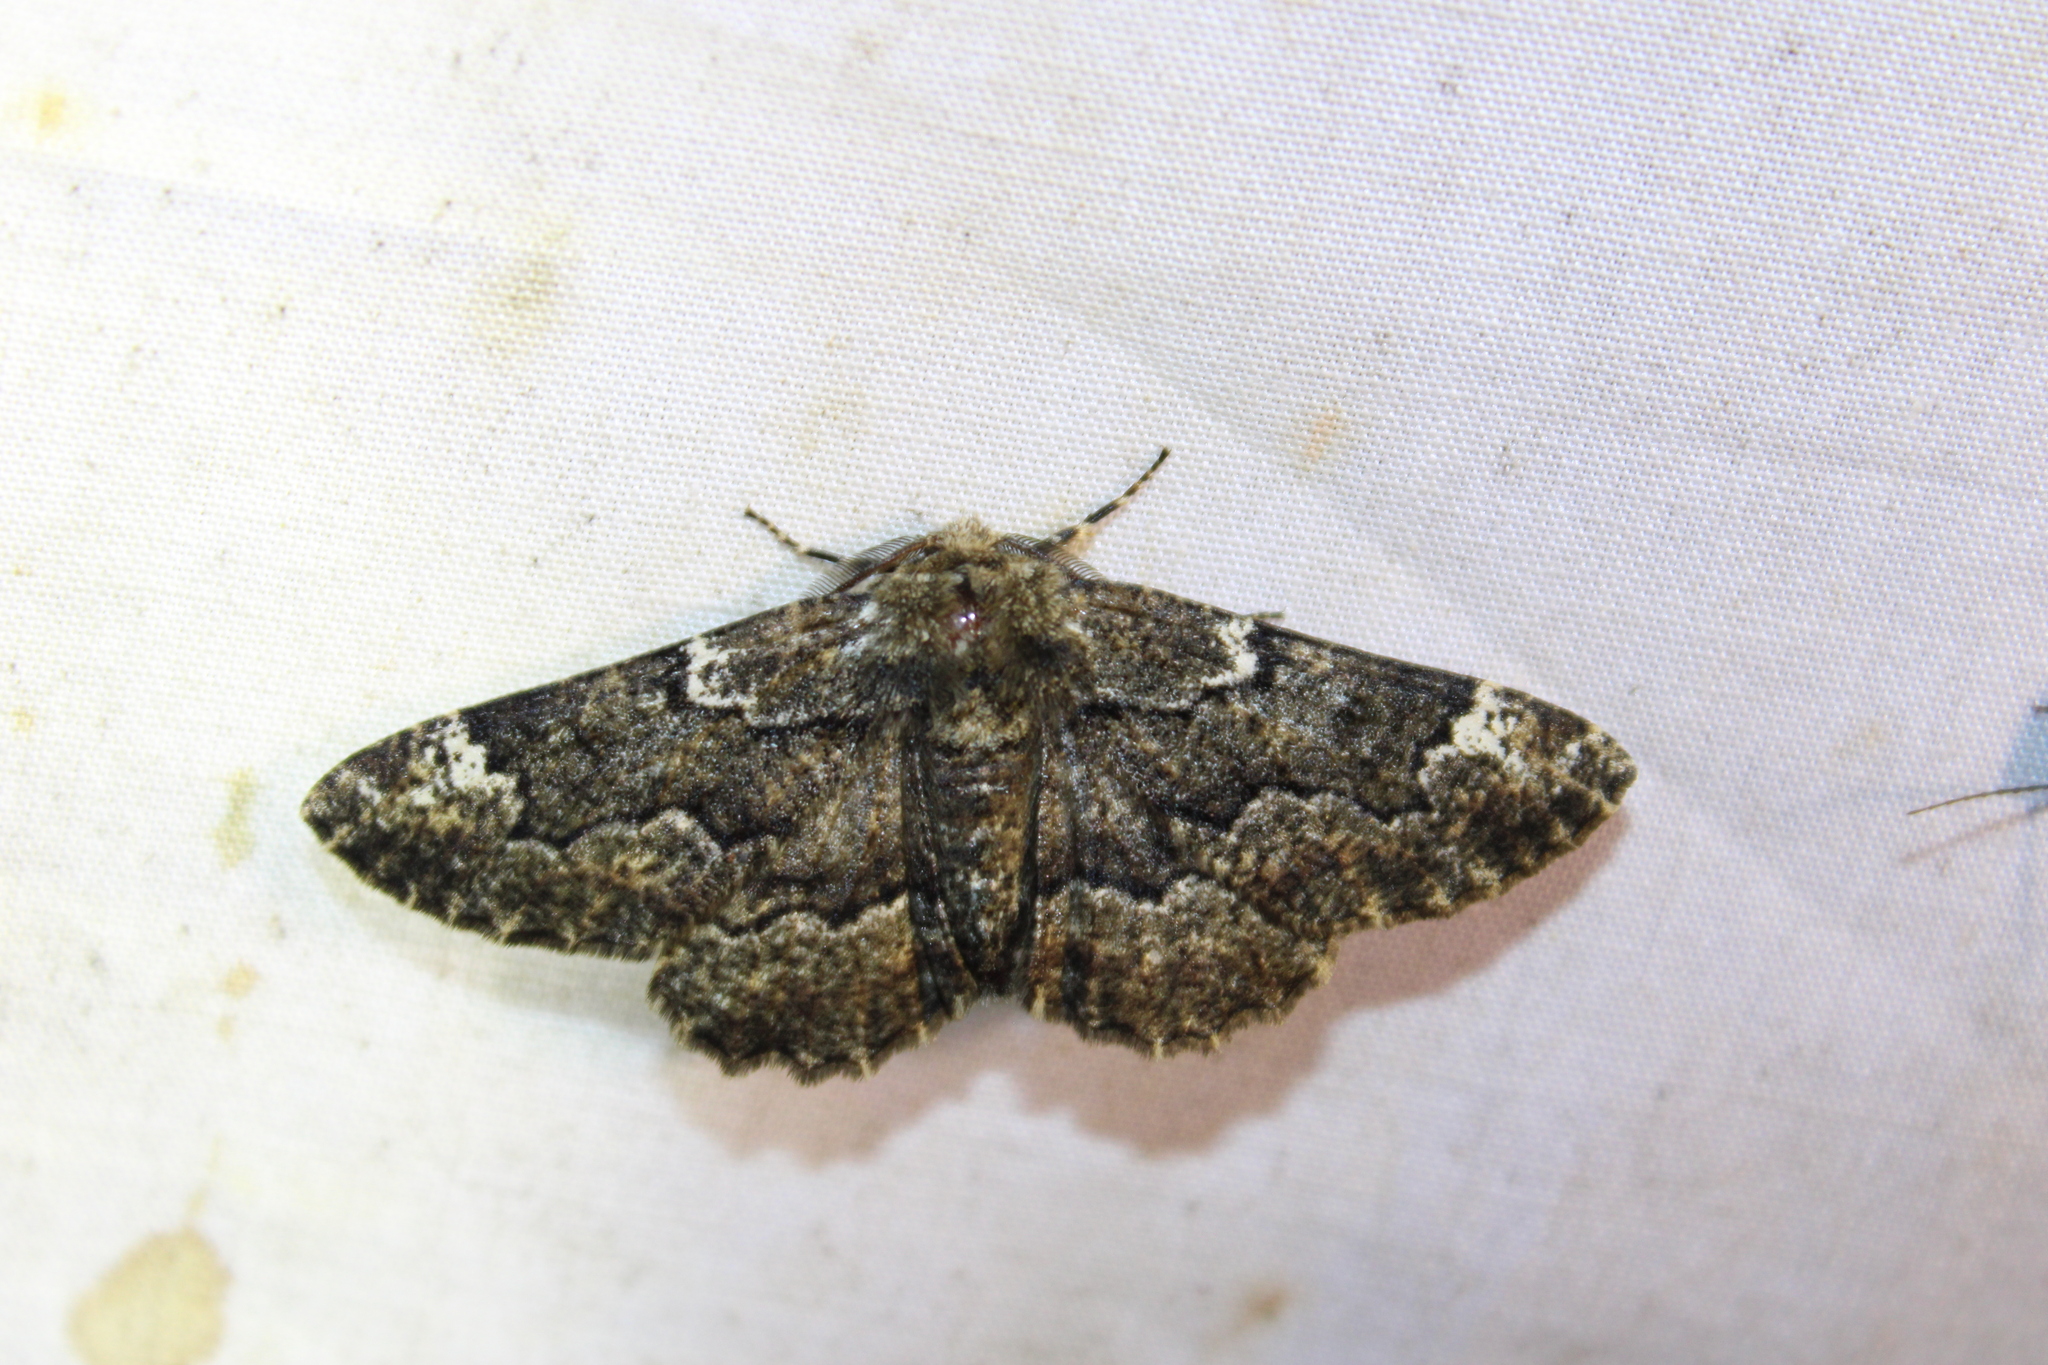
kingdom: Animalia
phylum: Arthropoda
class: Insecta
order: Lepidoptera
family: Geometridae
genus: Phaeoura
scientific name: Phaeoura quernaria
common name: Oak beauty
